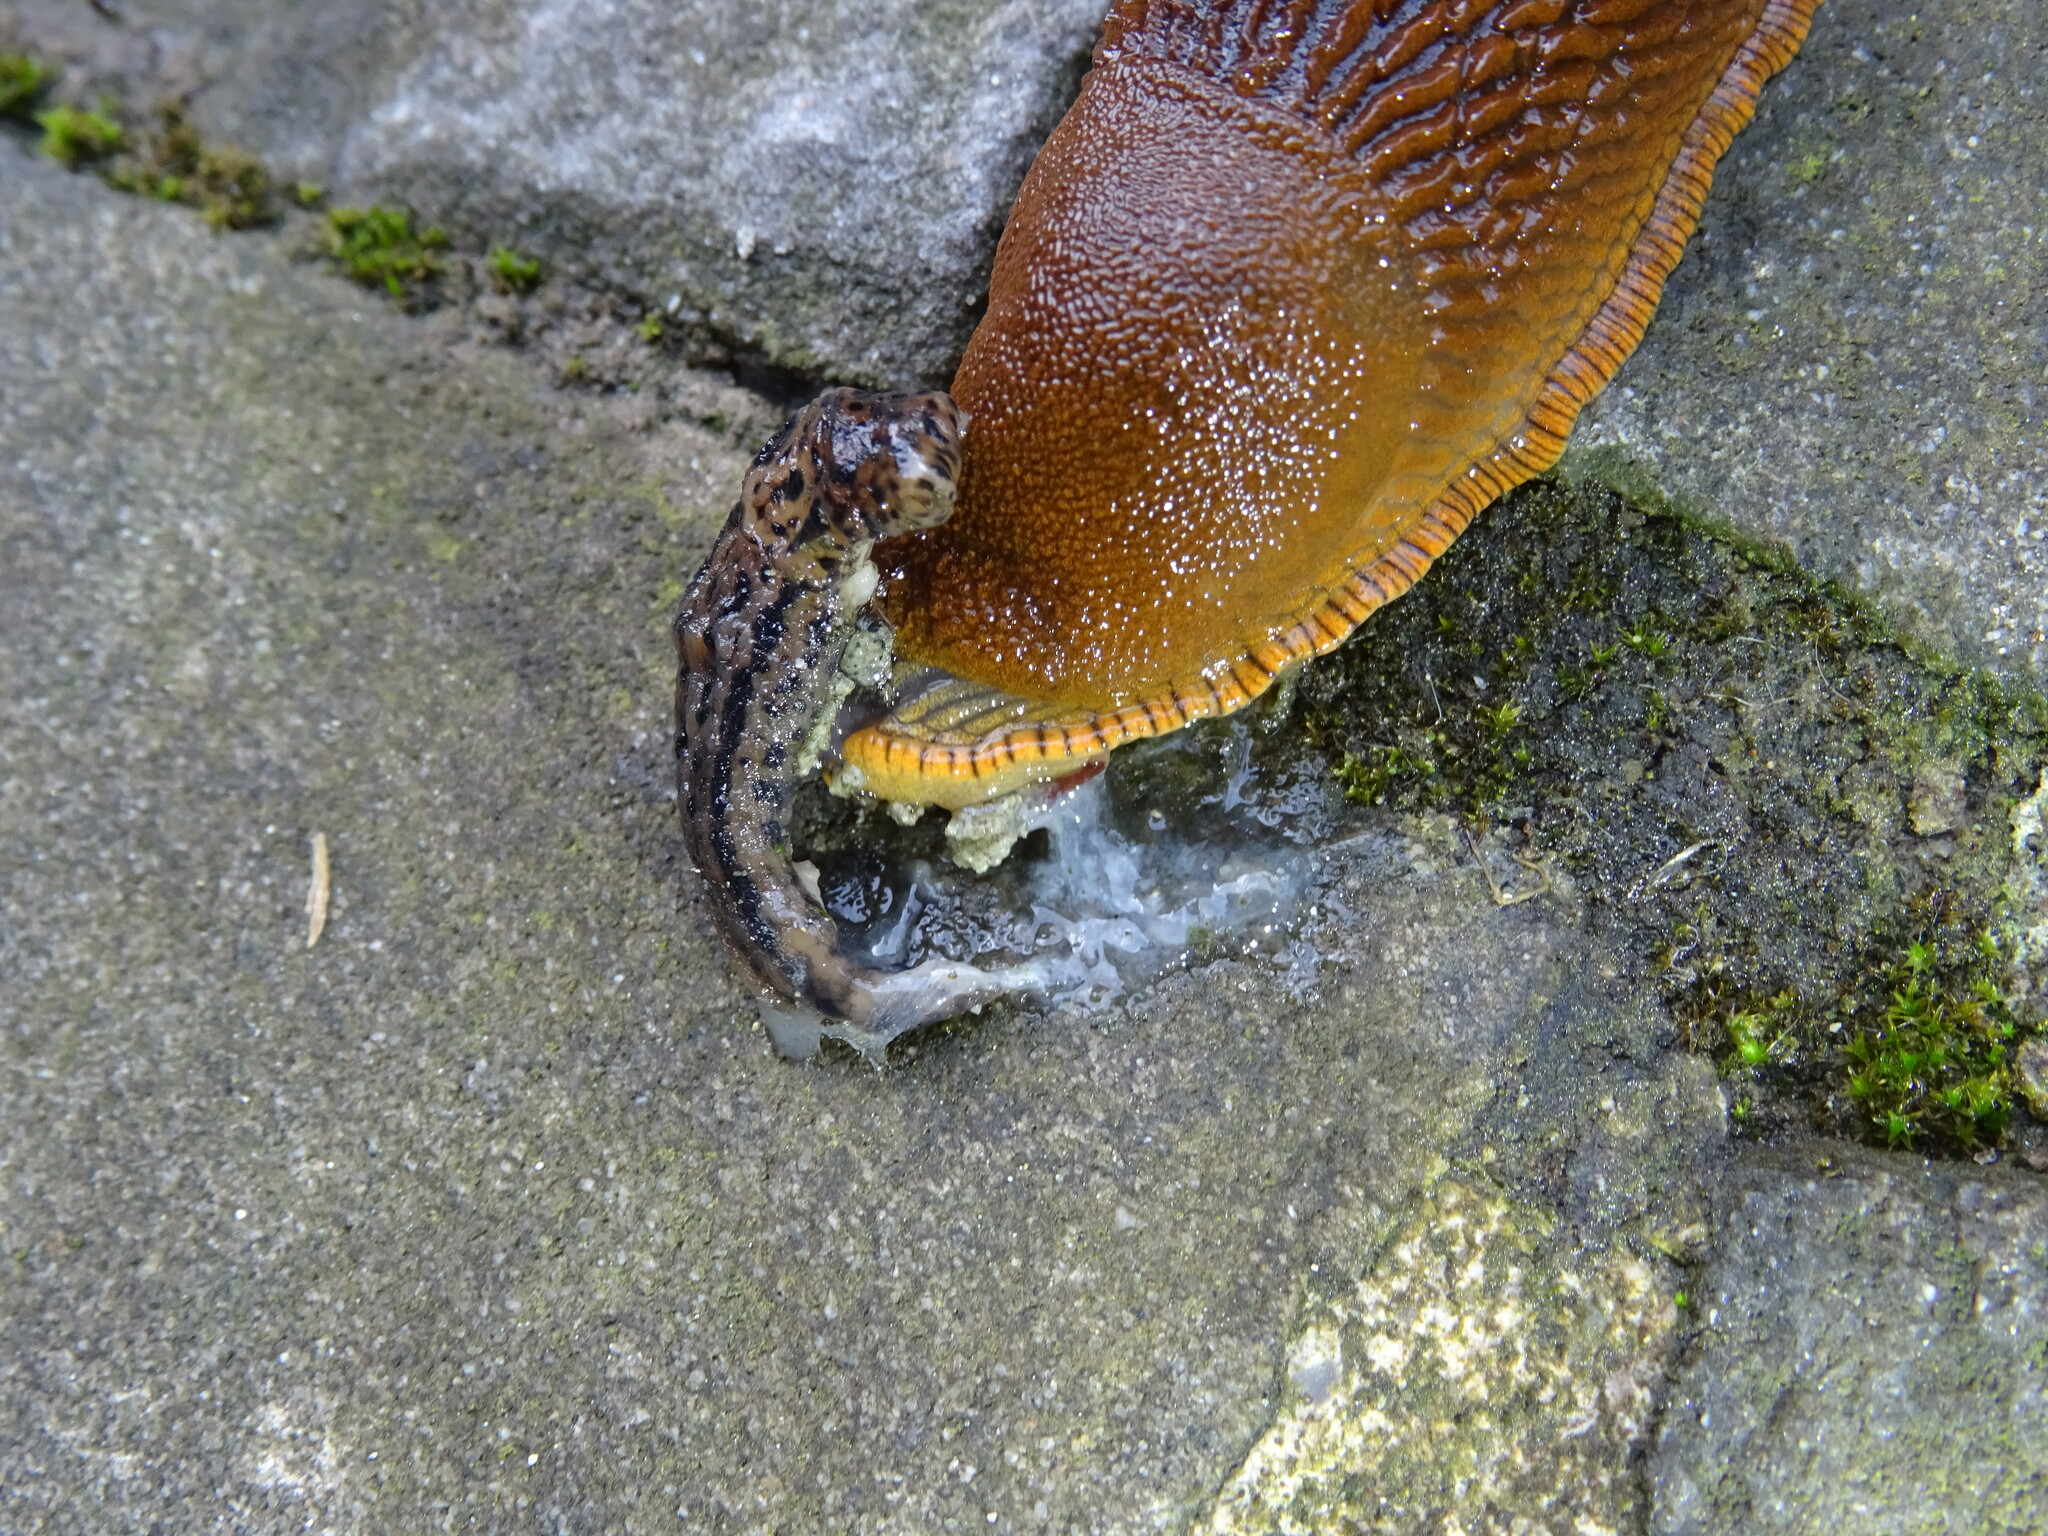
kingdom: Animalia
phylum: Mollusca
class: Gastropoda
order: Stylommatophora
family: Arionidae
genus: Arion
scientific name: Arion rufus
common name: Chocolate arion
